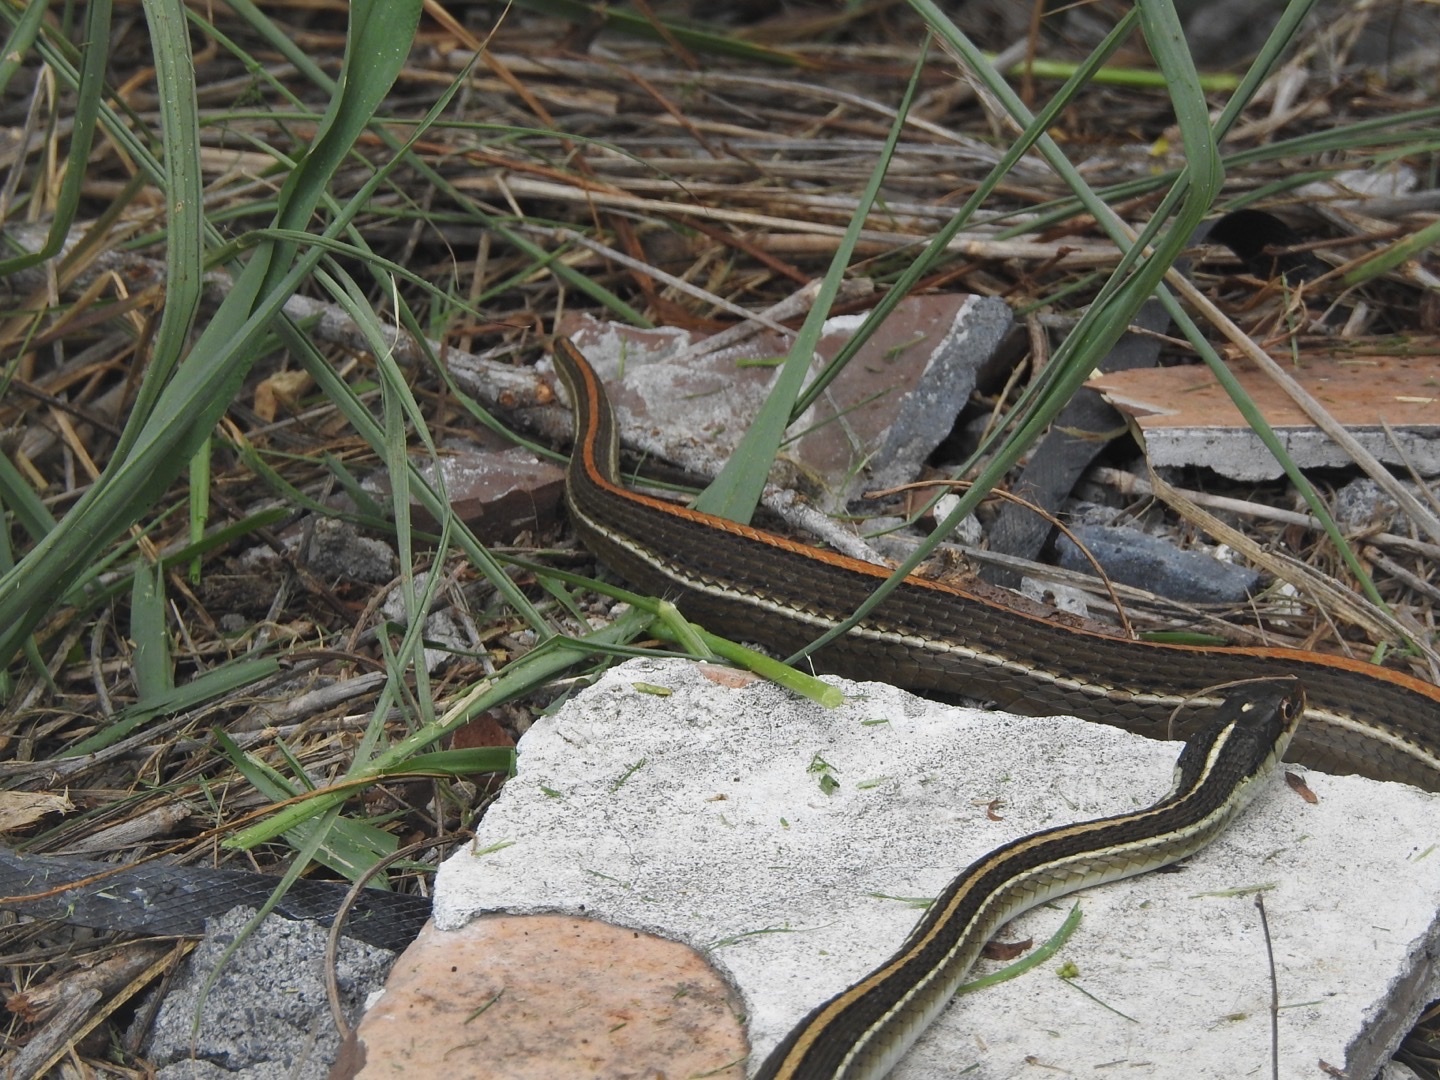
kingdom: Animalia
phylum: Chordata
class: Squamata
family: Colubridae
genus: Thamnophis
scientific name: Thamnophis proximus
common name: Western ribbon snake
